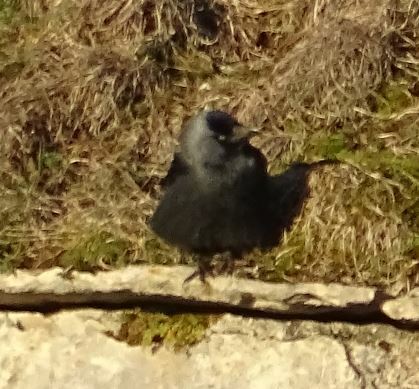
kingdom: Animalia
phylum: Chordata
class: Aves
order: Passeriformes
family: Corvidae
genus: Coloeus
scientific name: Coloeus monedula
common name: Western jackdaw
